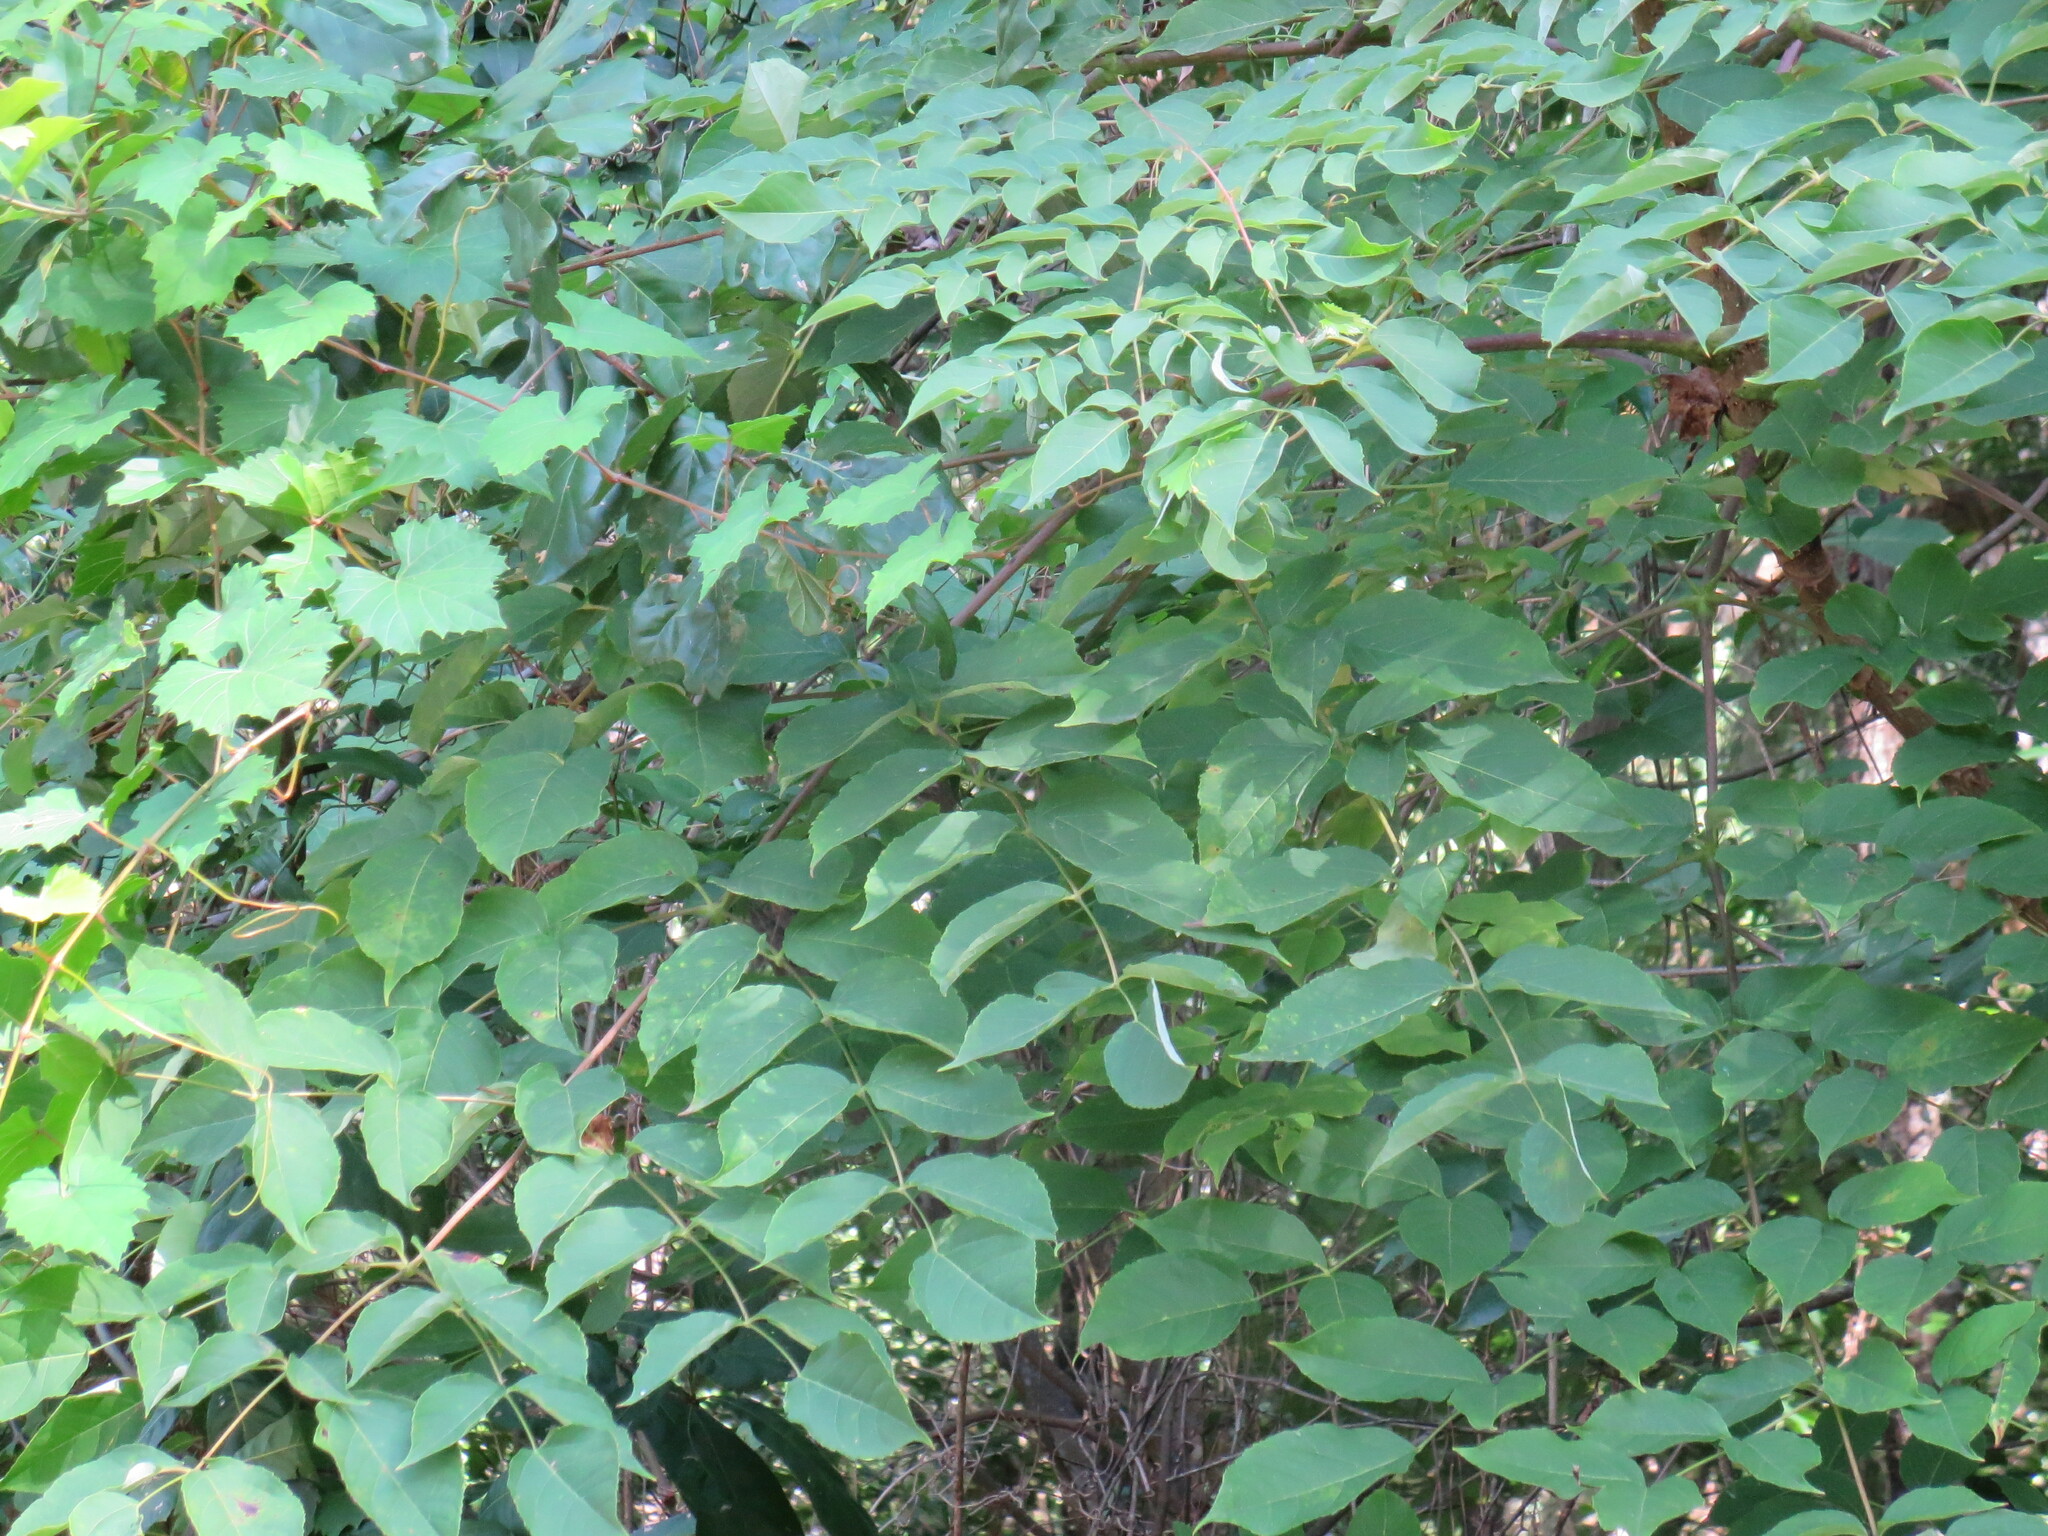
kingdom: Plantae
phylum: Tracheophyta
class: Magnoliopsida
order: Apiales
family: Araliaceae
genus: Aralia
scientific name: Aralia spinosa
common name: Hercules'-club
